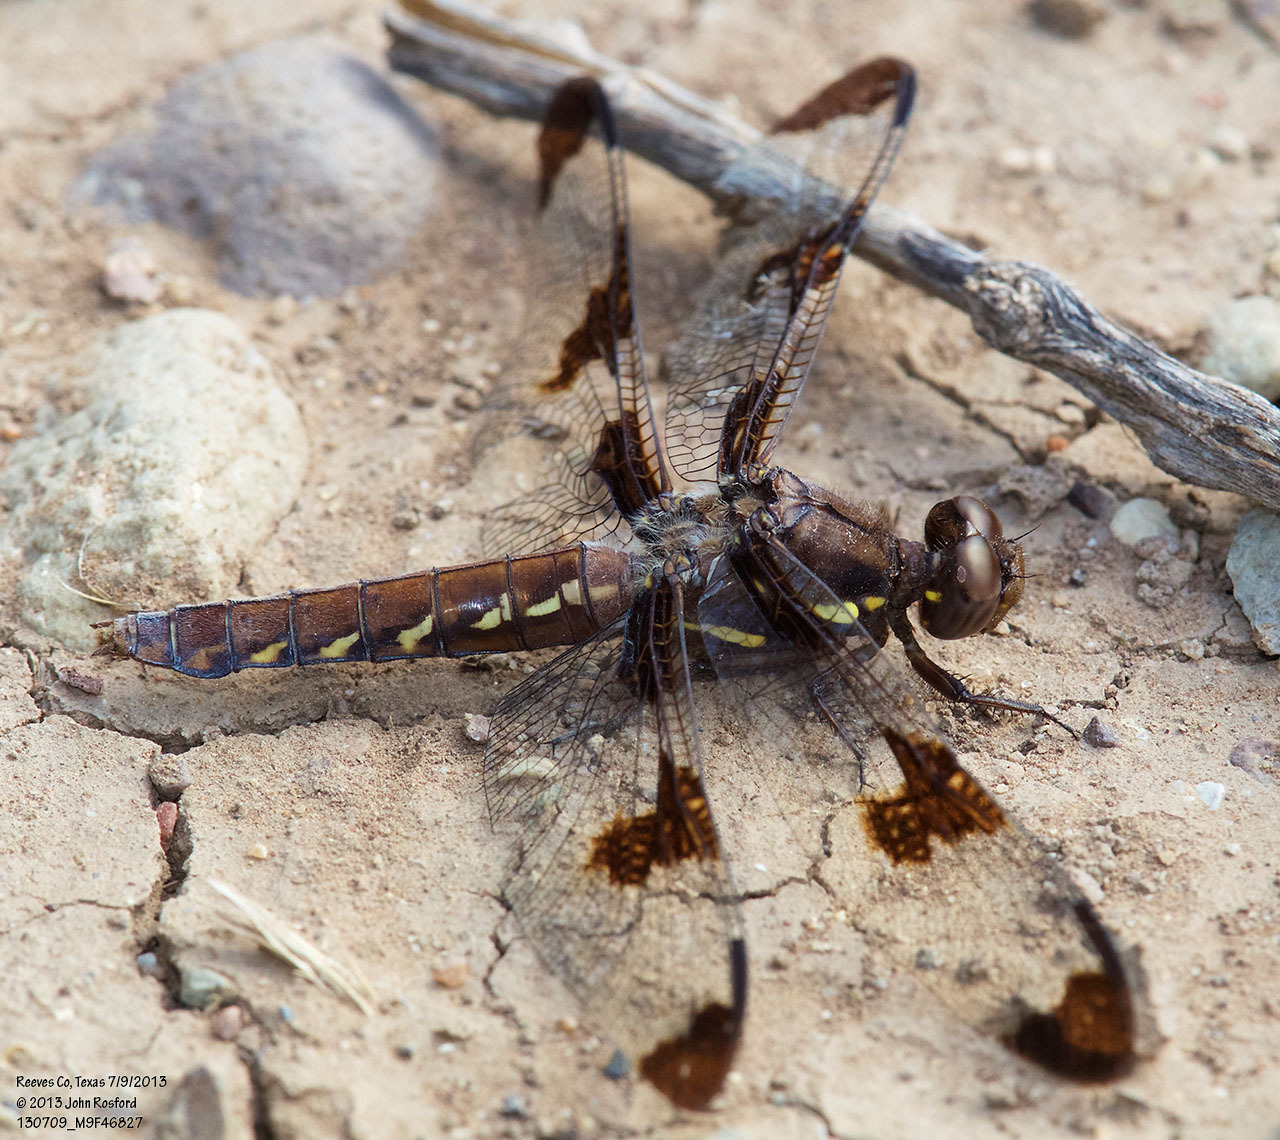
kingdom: Animalia
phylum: Arthropoda
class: Insecta
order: Odonata
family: Libellulidae
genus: Plathemis
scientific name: Plathemis lydia
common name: Common whitetail
